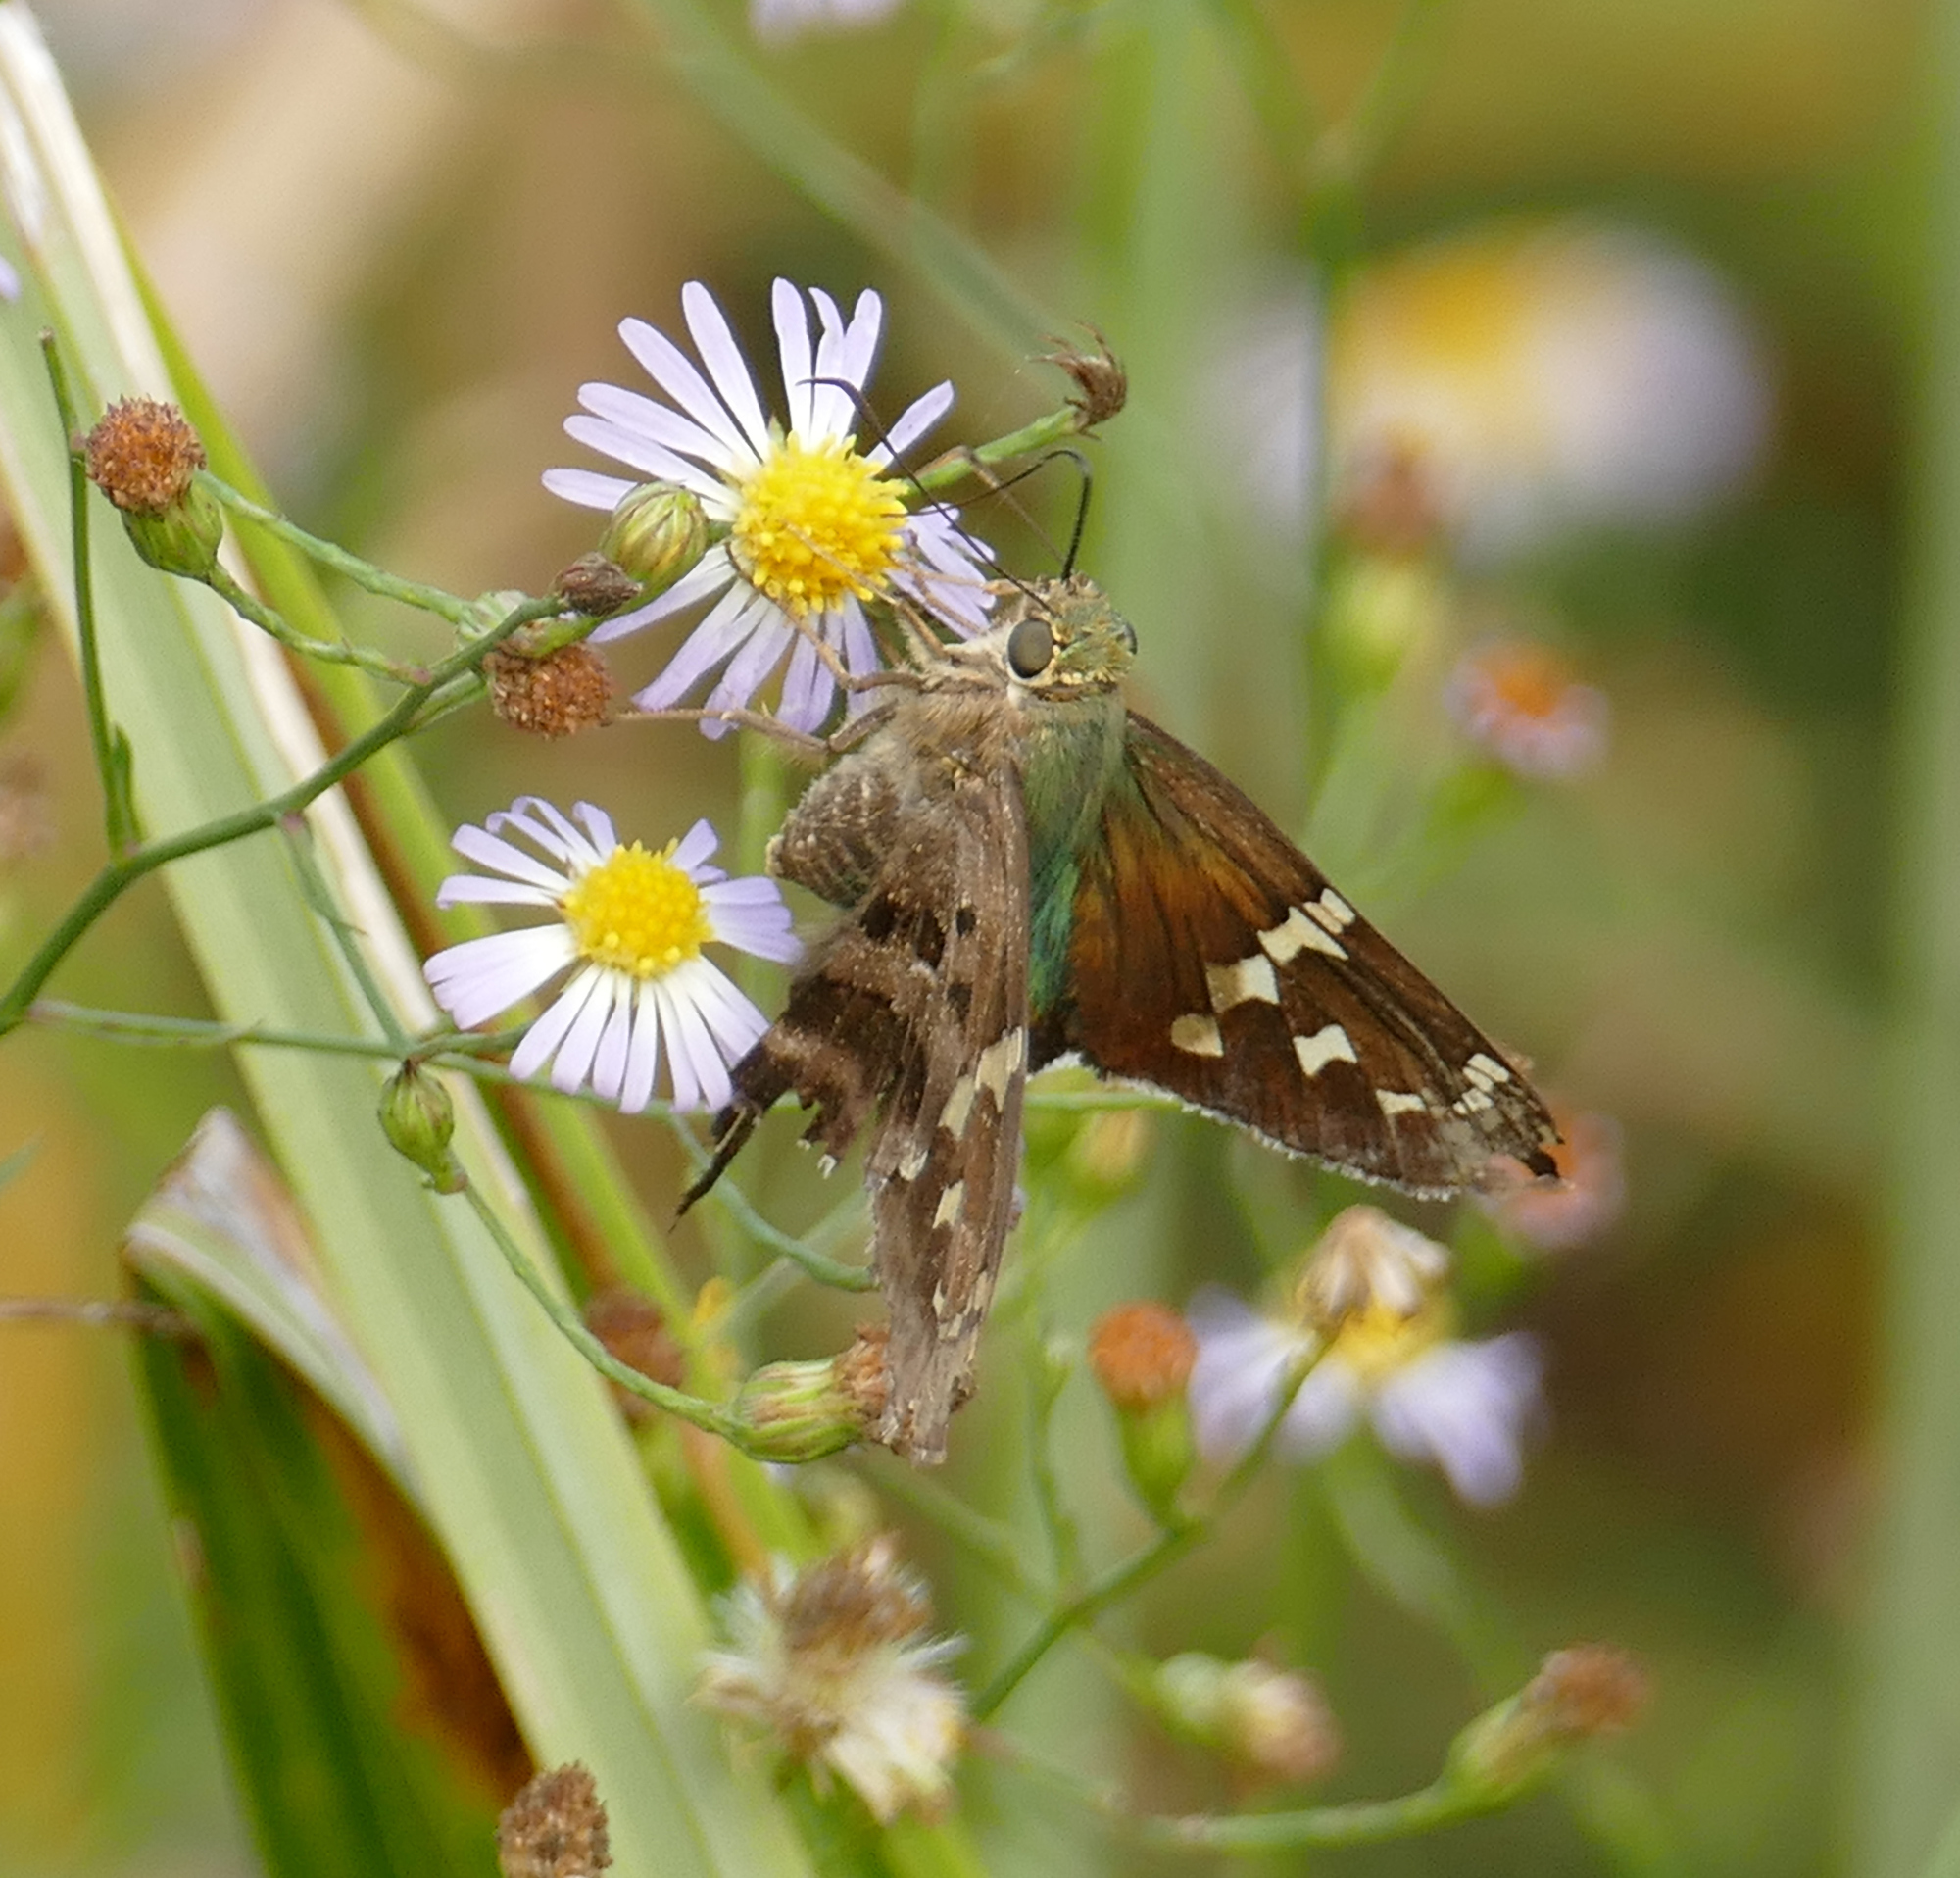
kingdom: Animalia
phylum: Arthropoda
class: Insecta
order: Lepidoptera
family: Hesperiidae
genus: Urbanus
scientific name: Urbanus proteus
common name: Long-tailed skipper
